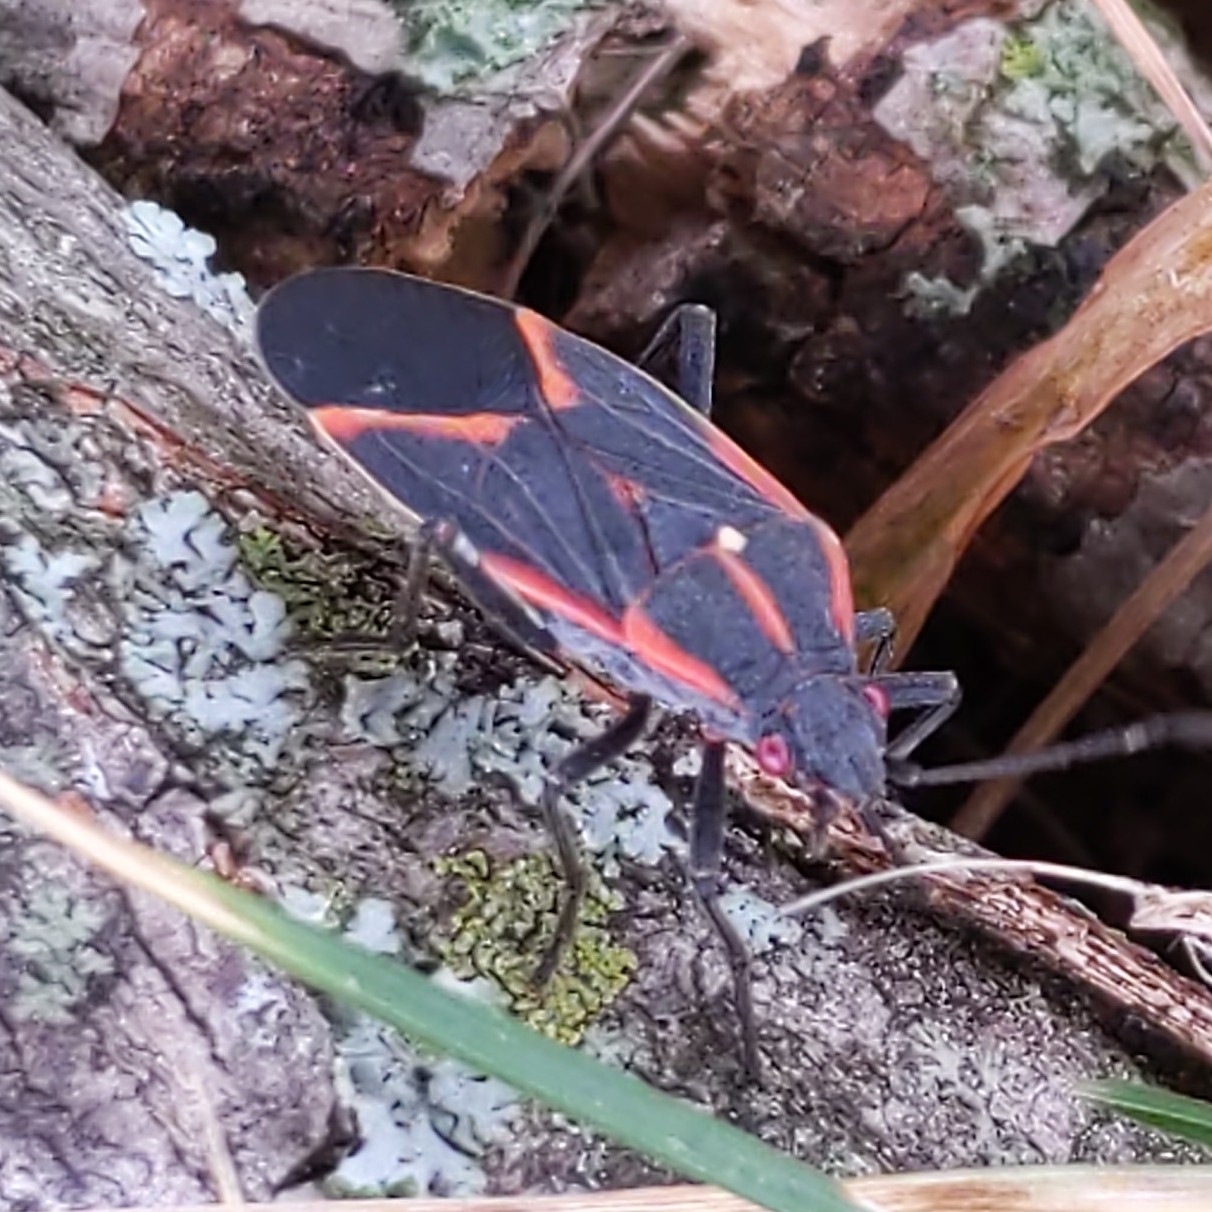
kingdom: Animalia
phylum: Arthropoda
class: Insecta
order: Hemiptera
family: Rhopalidae
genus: Boisea
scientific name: Boisea trivittata
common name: Boxelder bug
